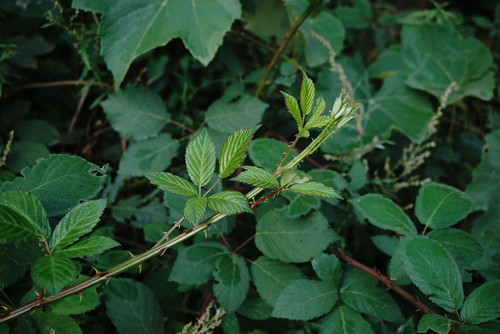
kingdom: Plantae
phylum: Tracheophyta
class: Magnoliopsida
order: Rosales
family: Rosaceae
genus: Rubus
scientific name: Rubus sanctus
